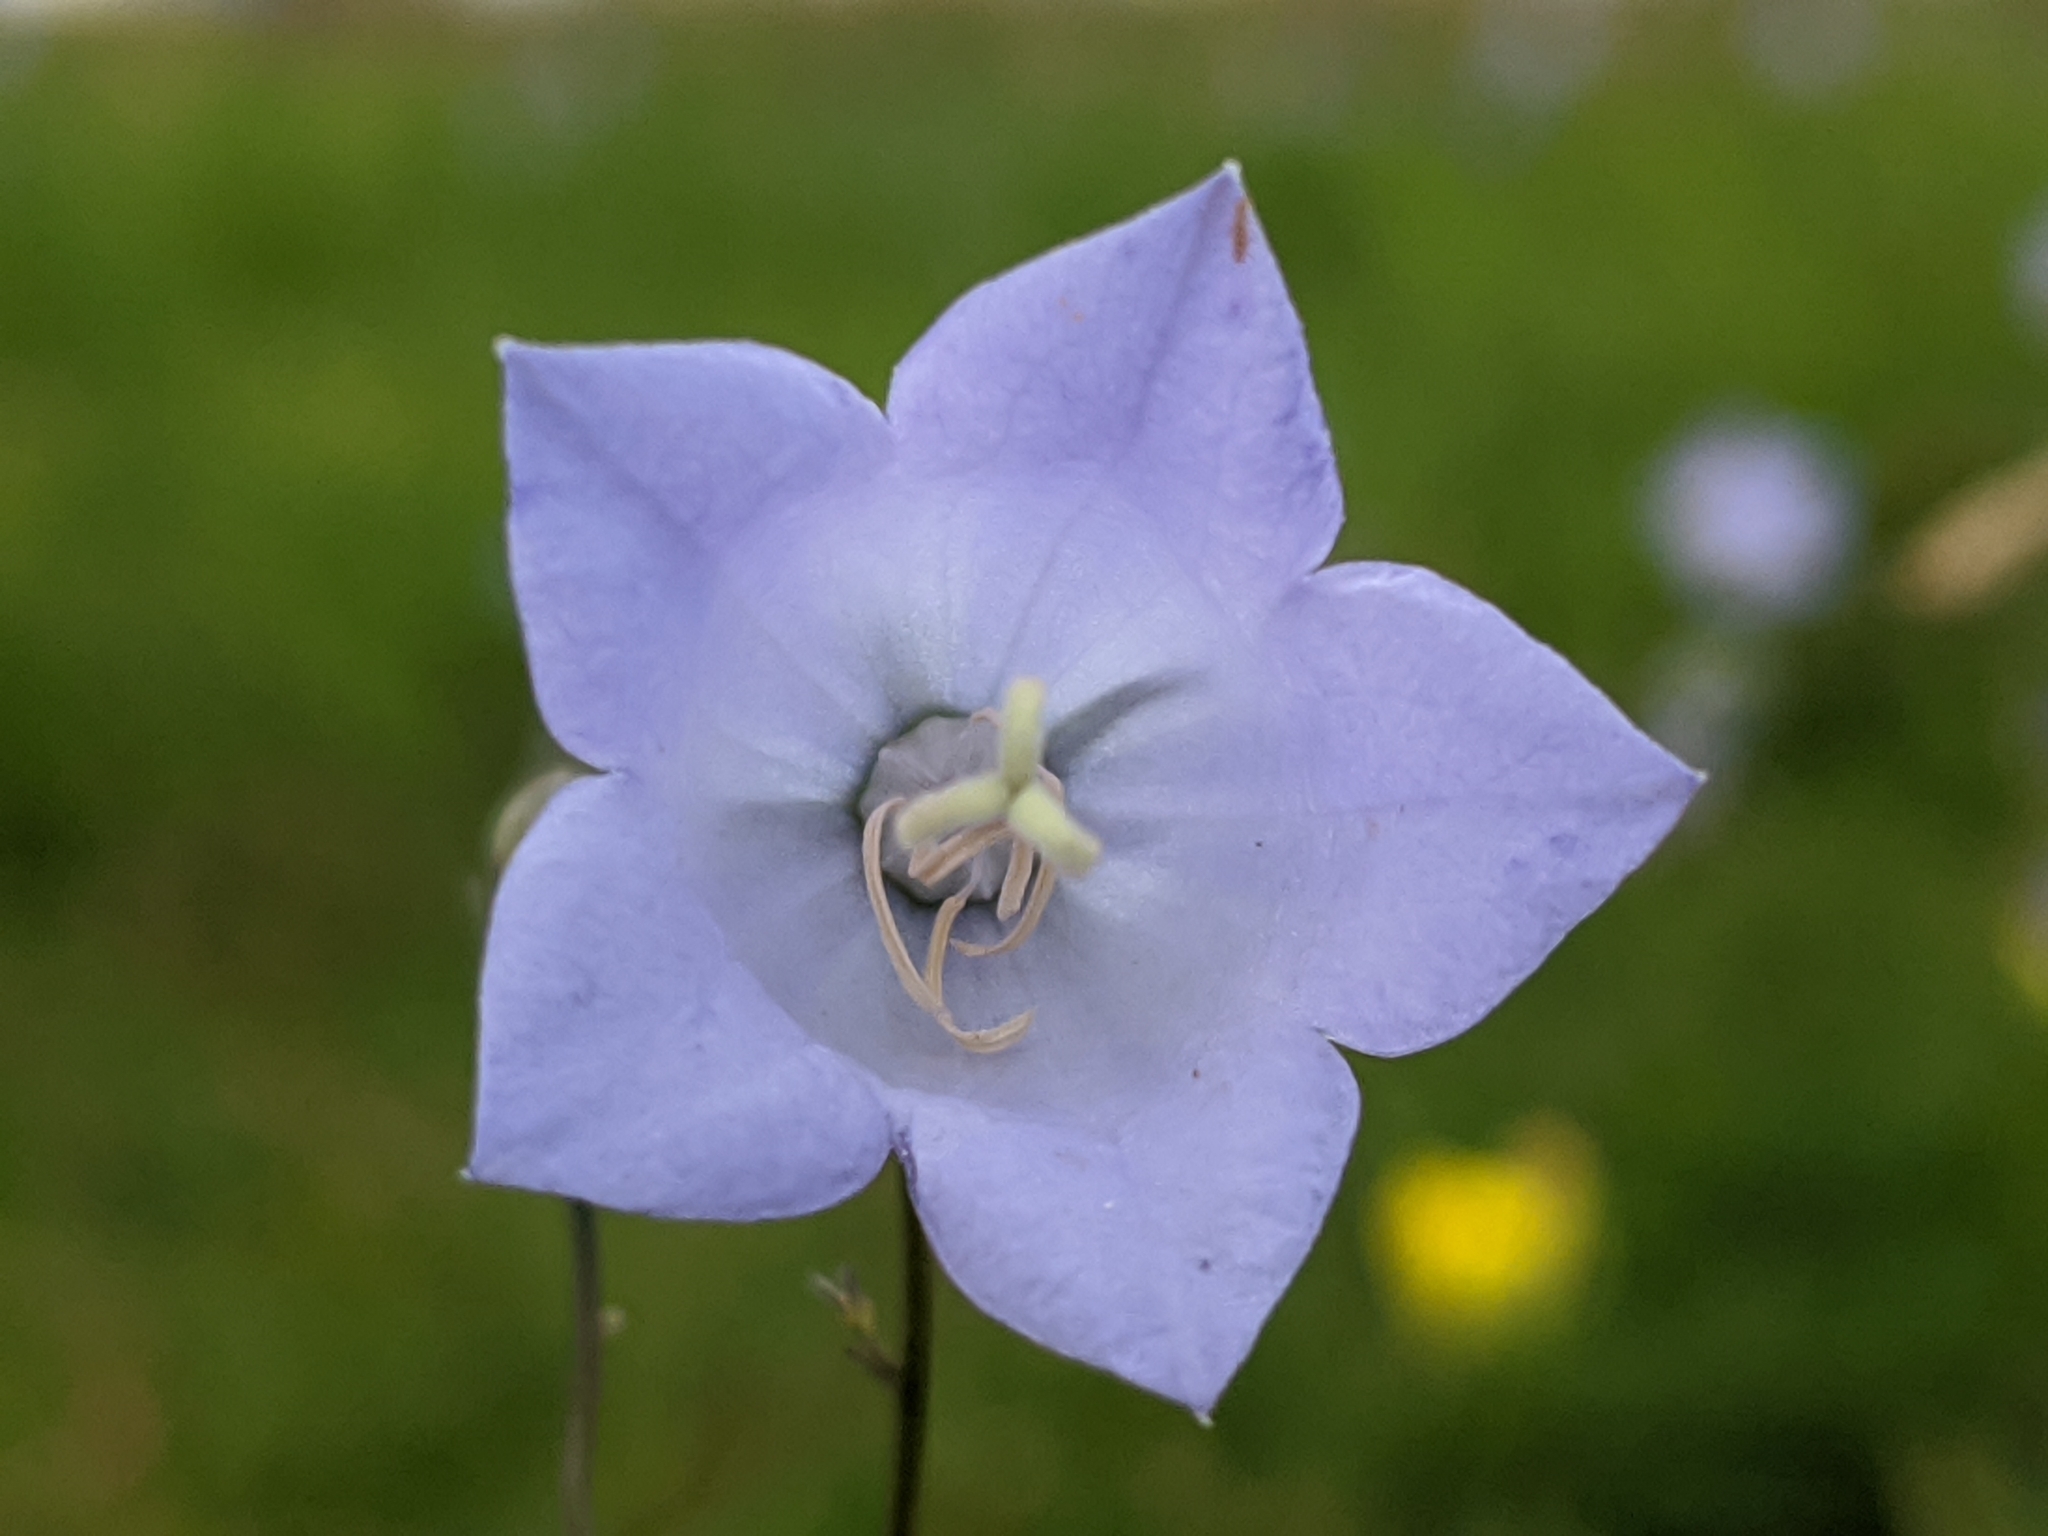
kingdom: Plantae
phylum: Tracheophyta
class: Magnoliopsida
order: Asterales
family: Campanulaceae
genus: Campanula
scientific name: Campanula rotundifolia
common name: Harebell
